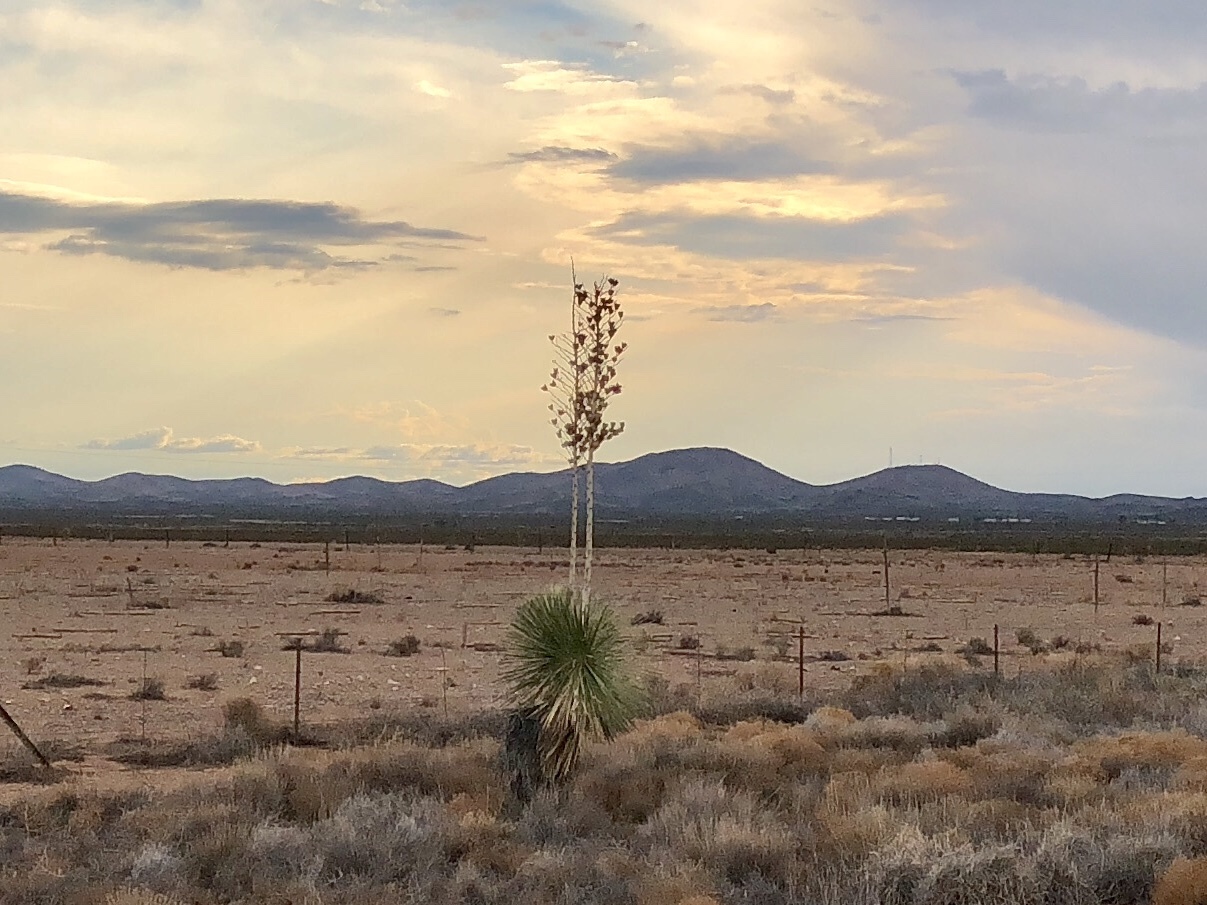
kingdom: Plantae
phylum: Tracheophyta
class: Liliopsida
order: Asparagales
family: Asparagaceae
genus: Yucca
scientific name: Yucca elata
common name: Palmella
